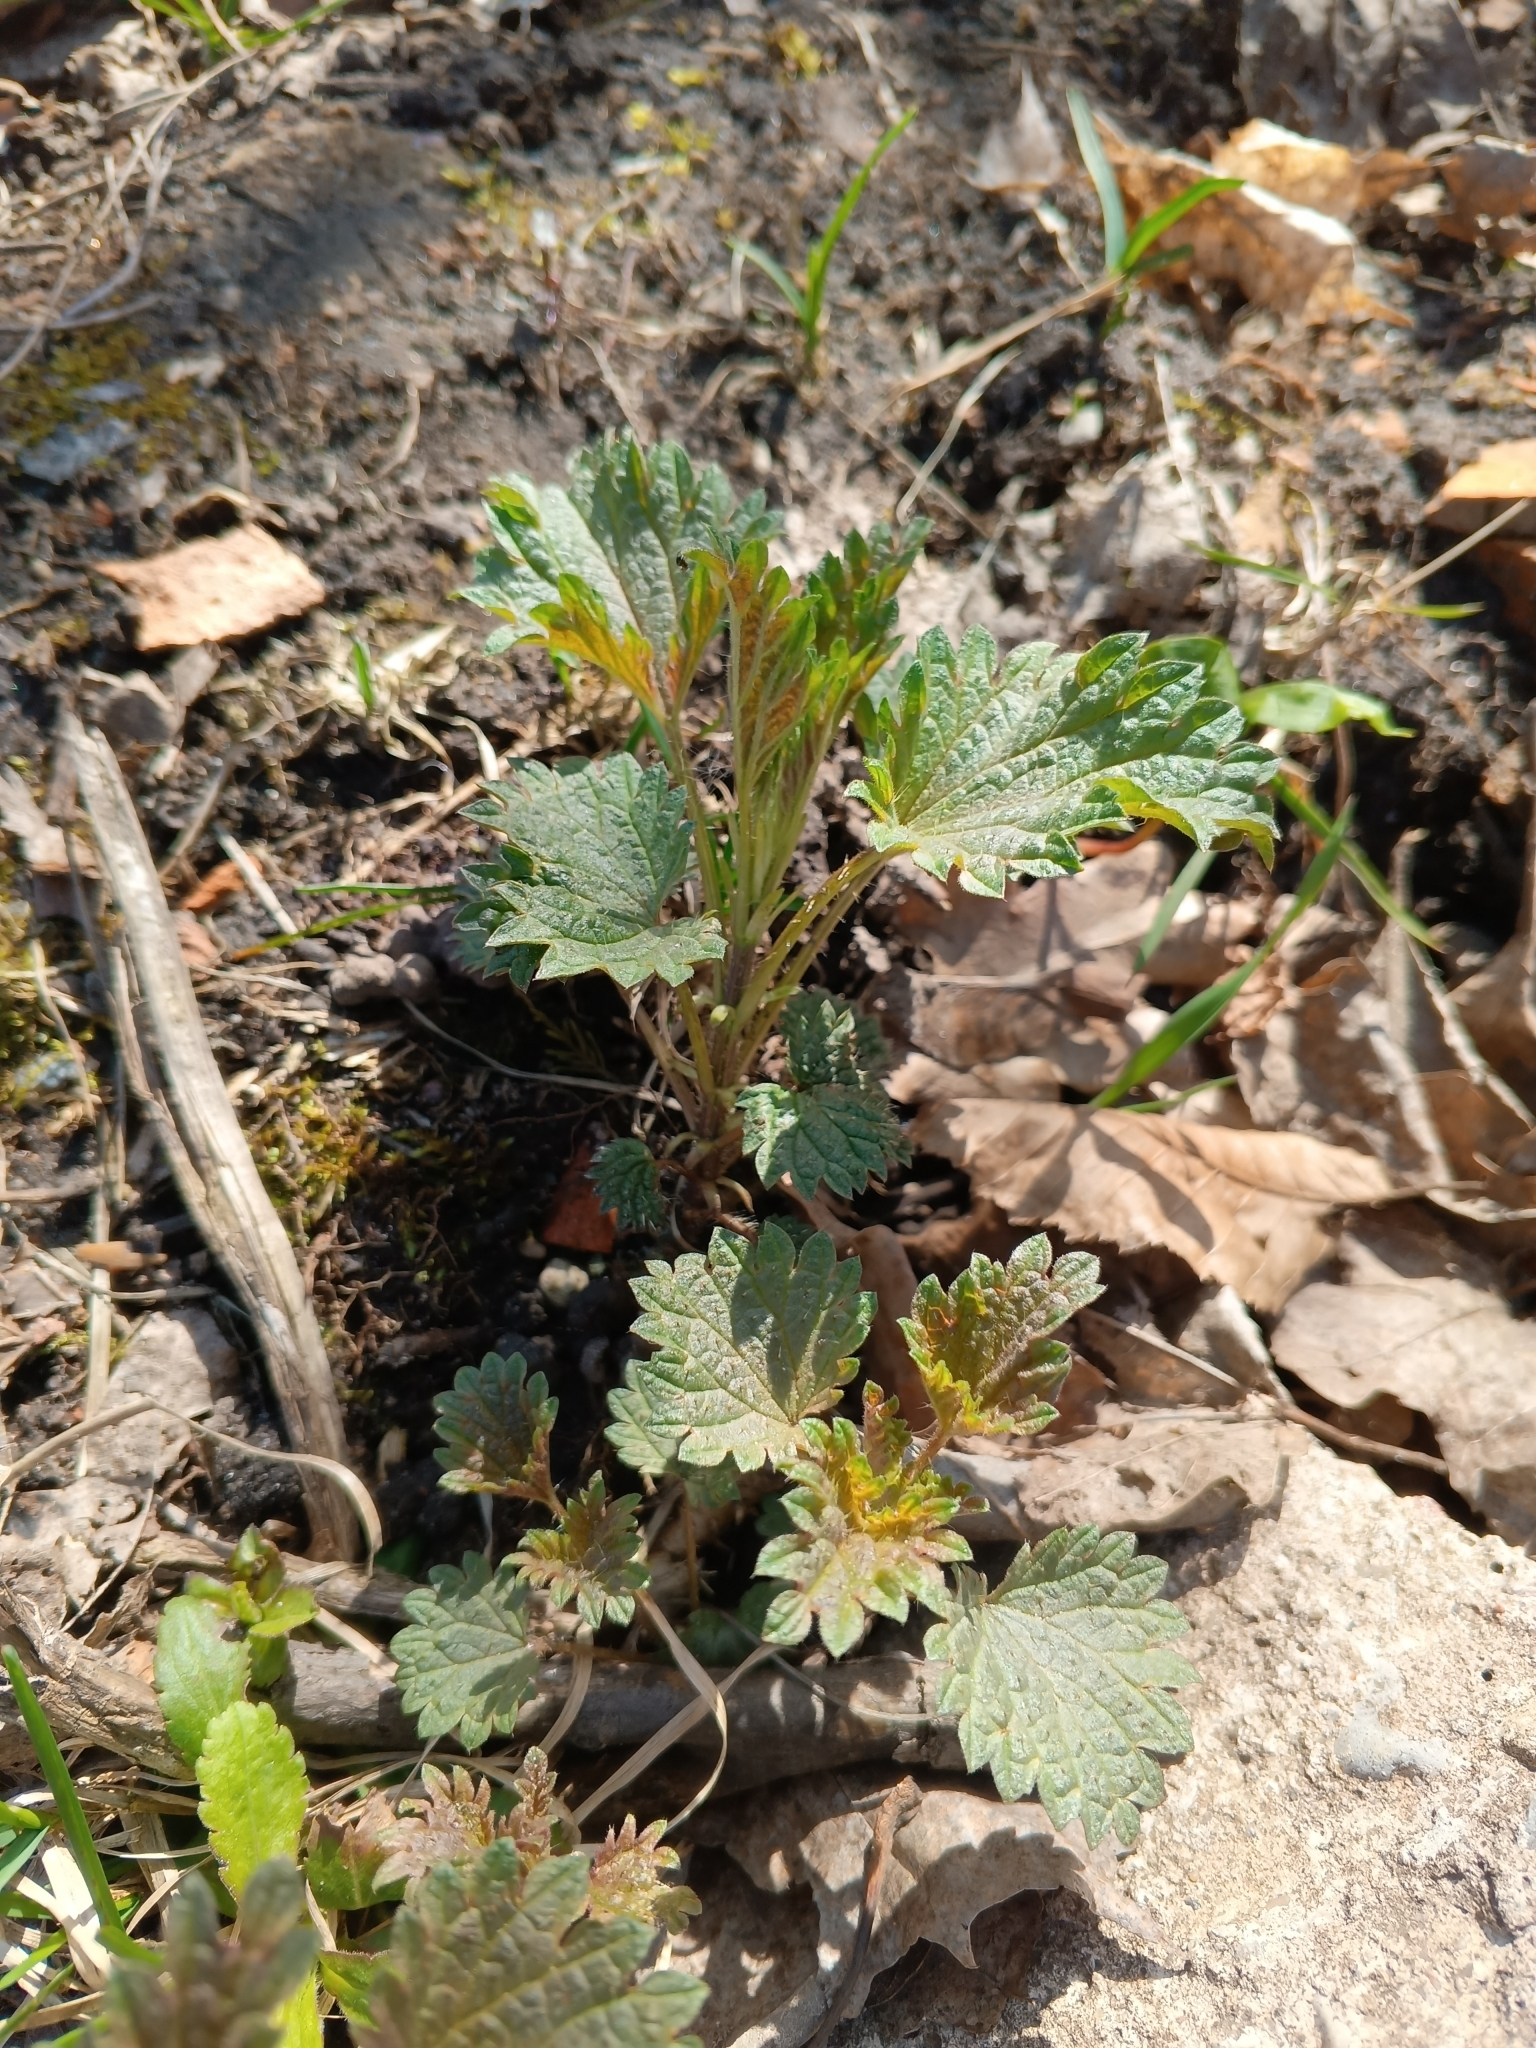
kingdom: Plantae
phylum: Tracheophyta
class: Magnoliopsida
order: Rosales
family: Urticaceae
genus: Urtica
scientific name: Urtica dioica
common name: Common nettle
